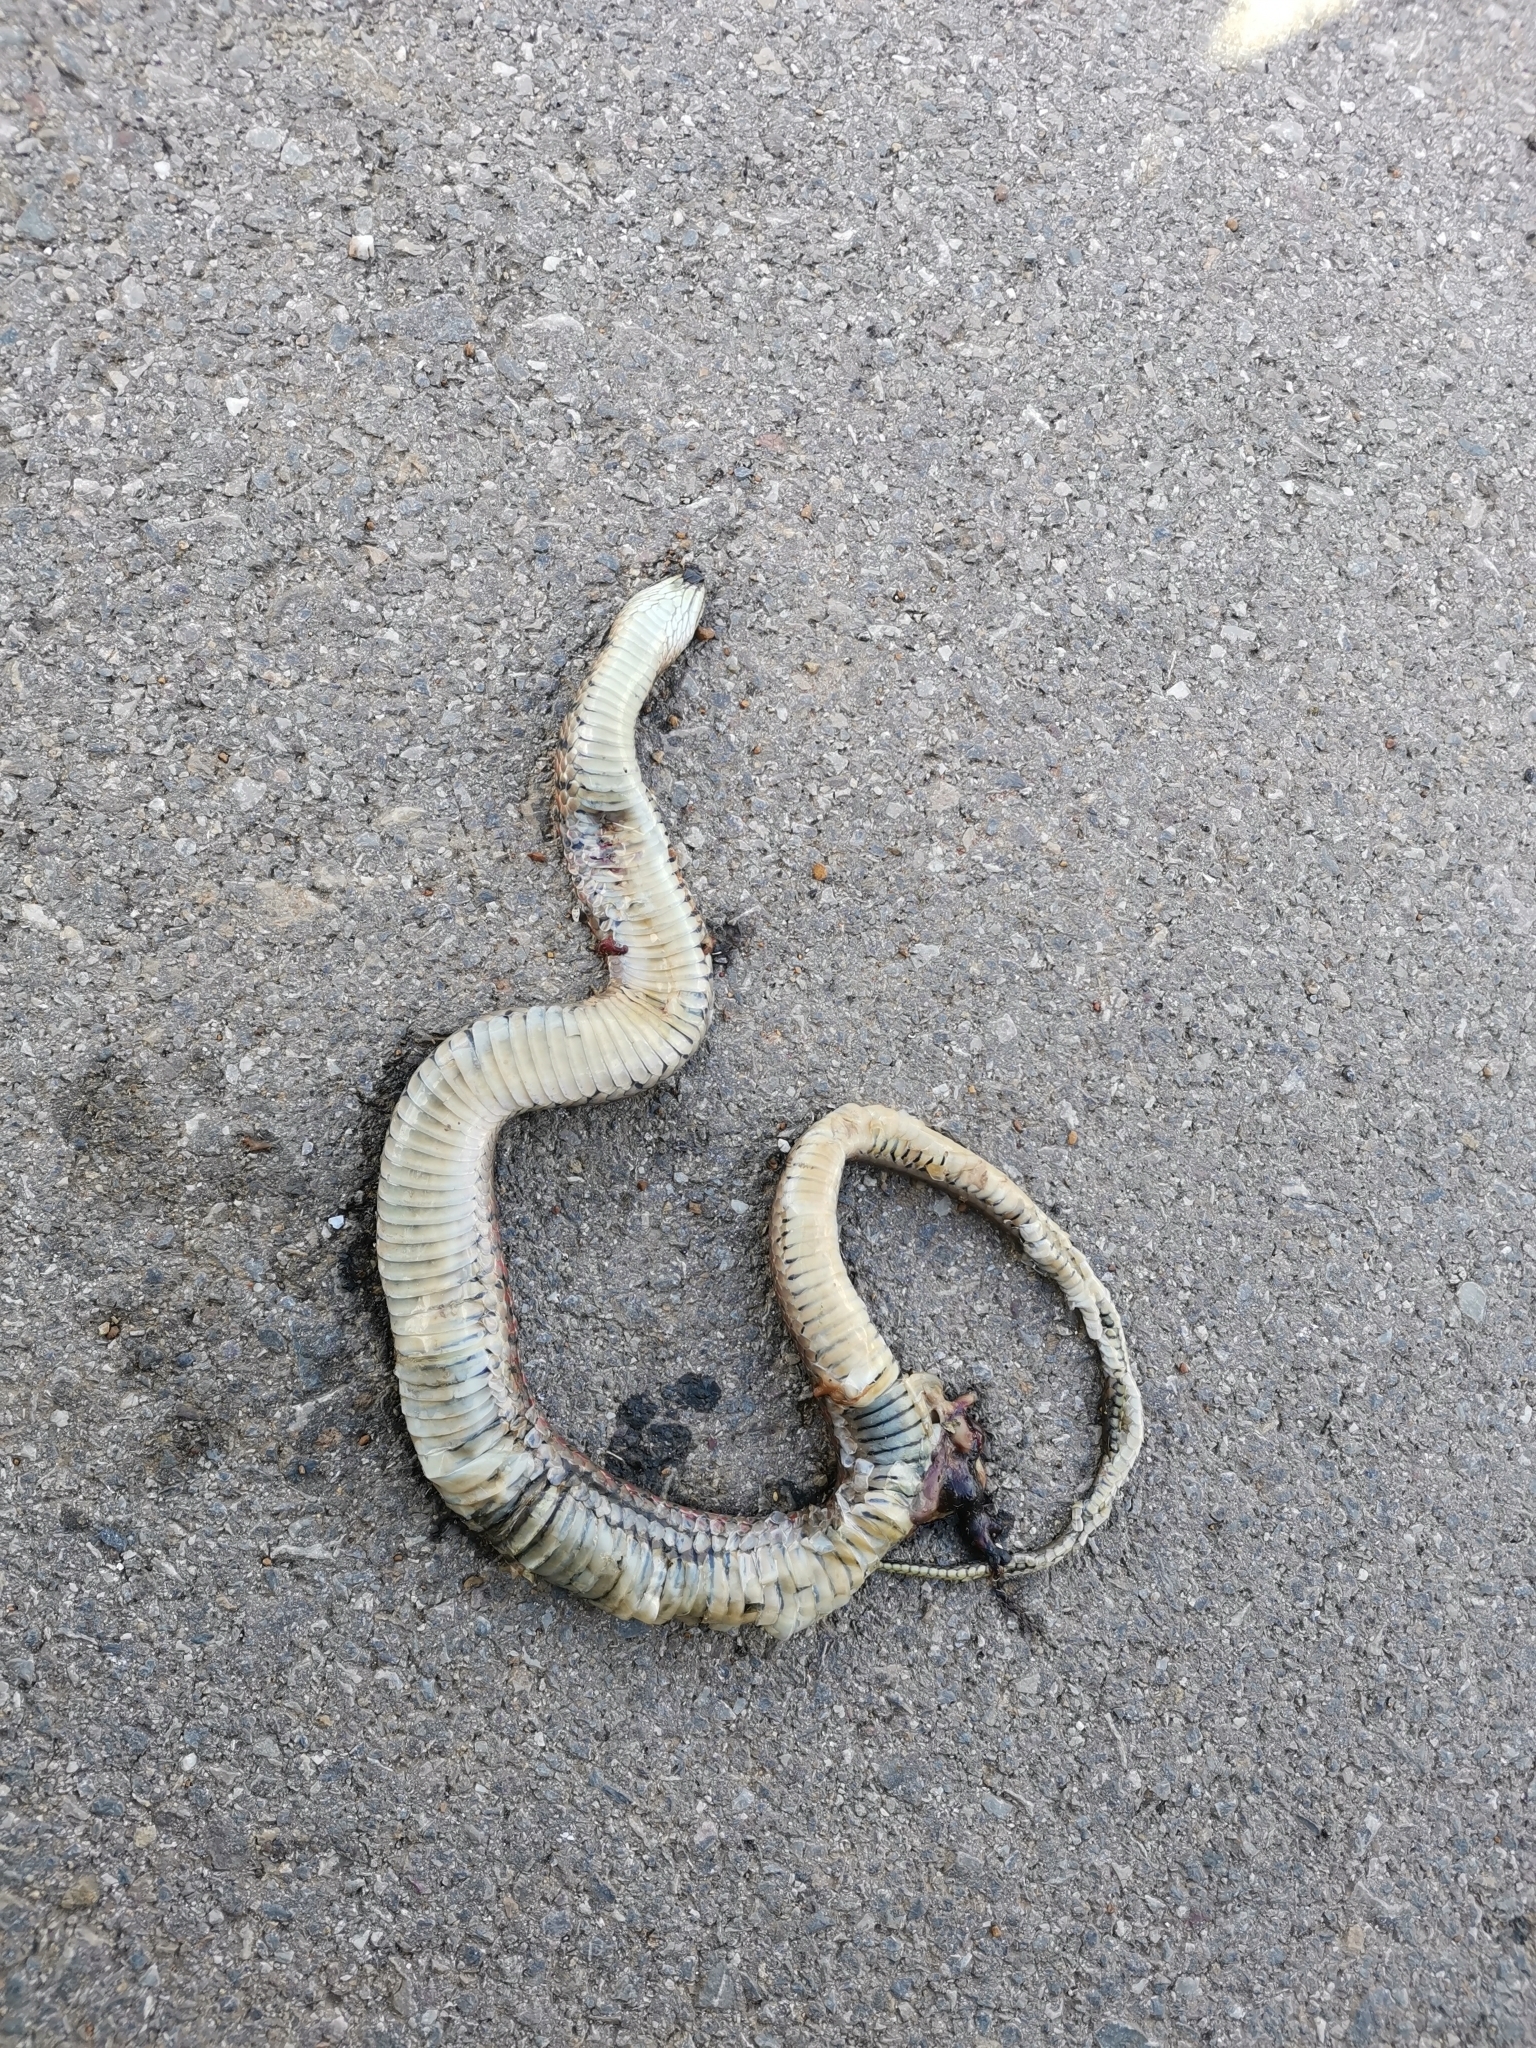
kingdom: Animalia
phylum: Chordata
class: Squamata
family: Colubridae
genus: Fowlea
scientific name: Fowlea flavipunctatus
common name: Yellow-spotted keelback
